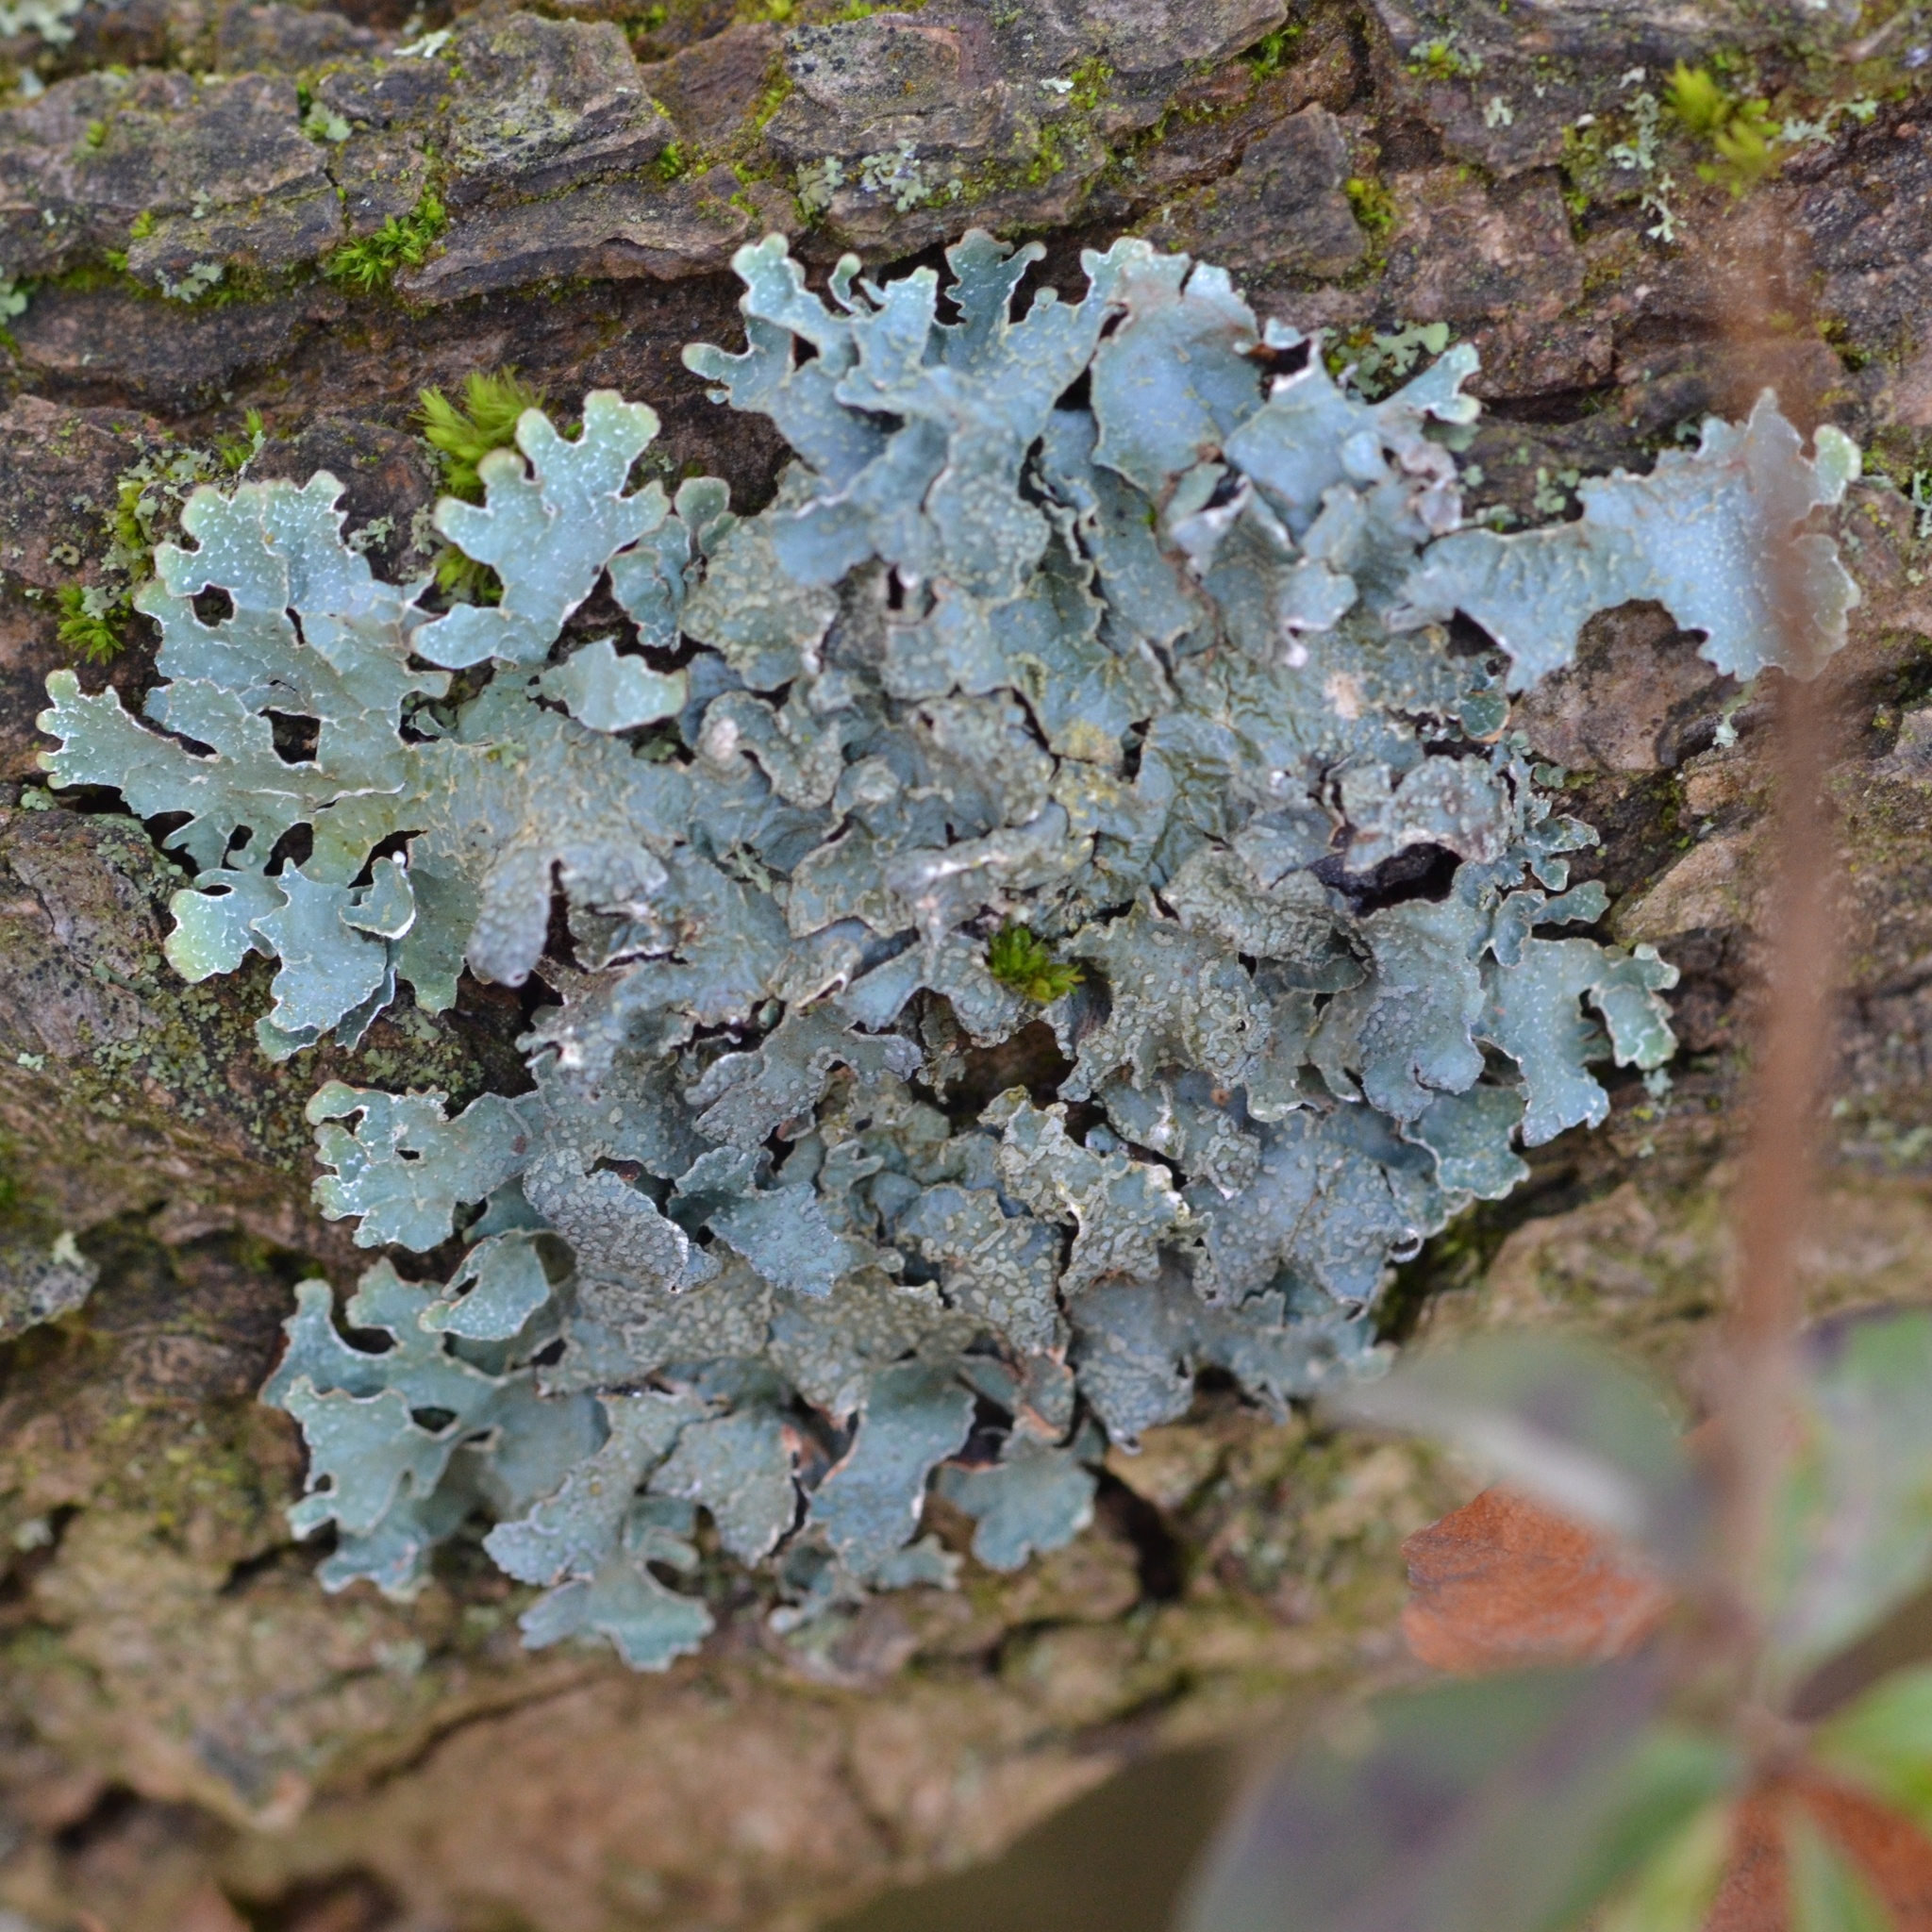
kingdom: Fungi
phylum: Ascomycota
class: Lecanoromycetes
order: Lecanorales
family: Parmeliaceae
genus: Parmelia
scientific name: Parmelia sulcata
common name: Netted shield lichen
